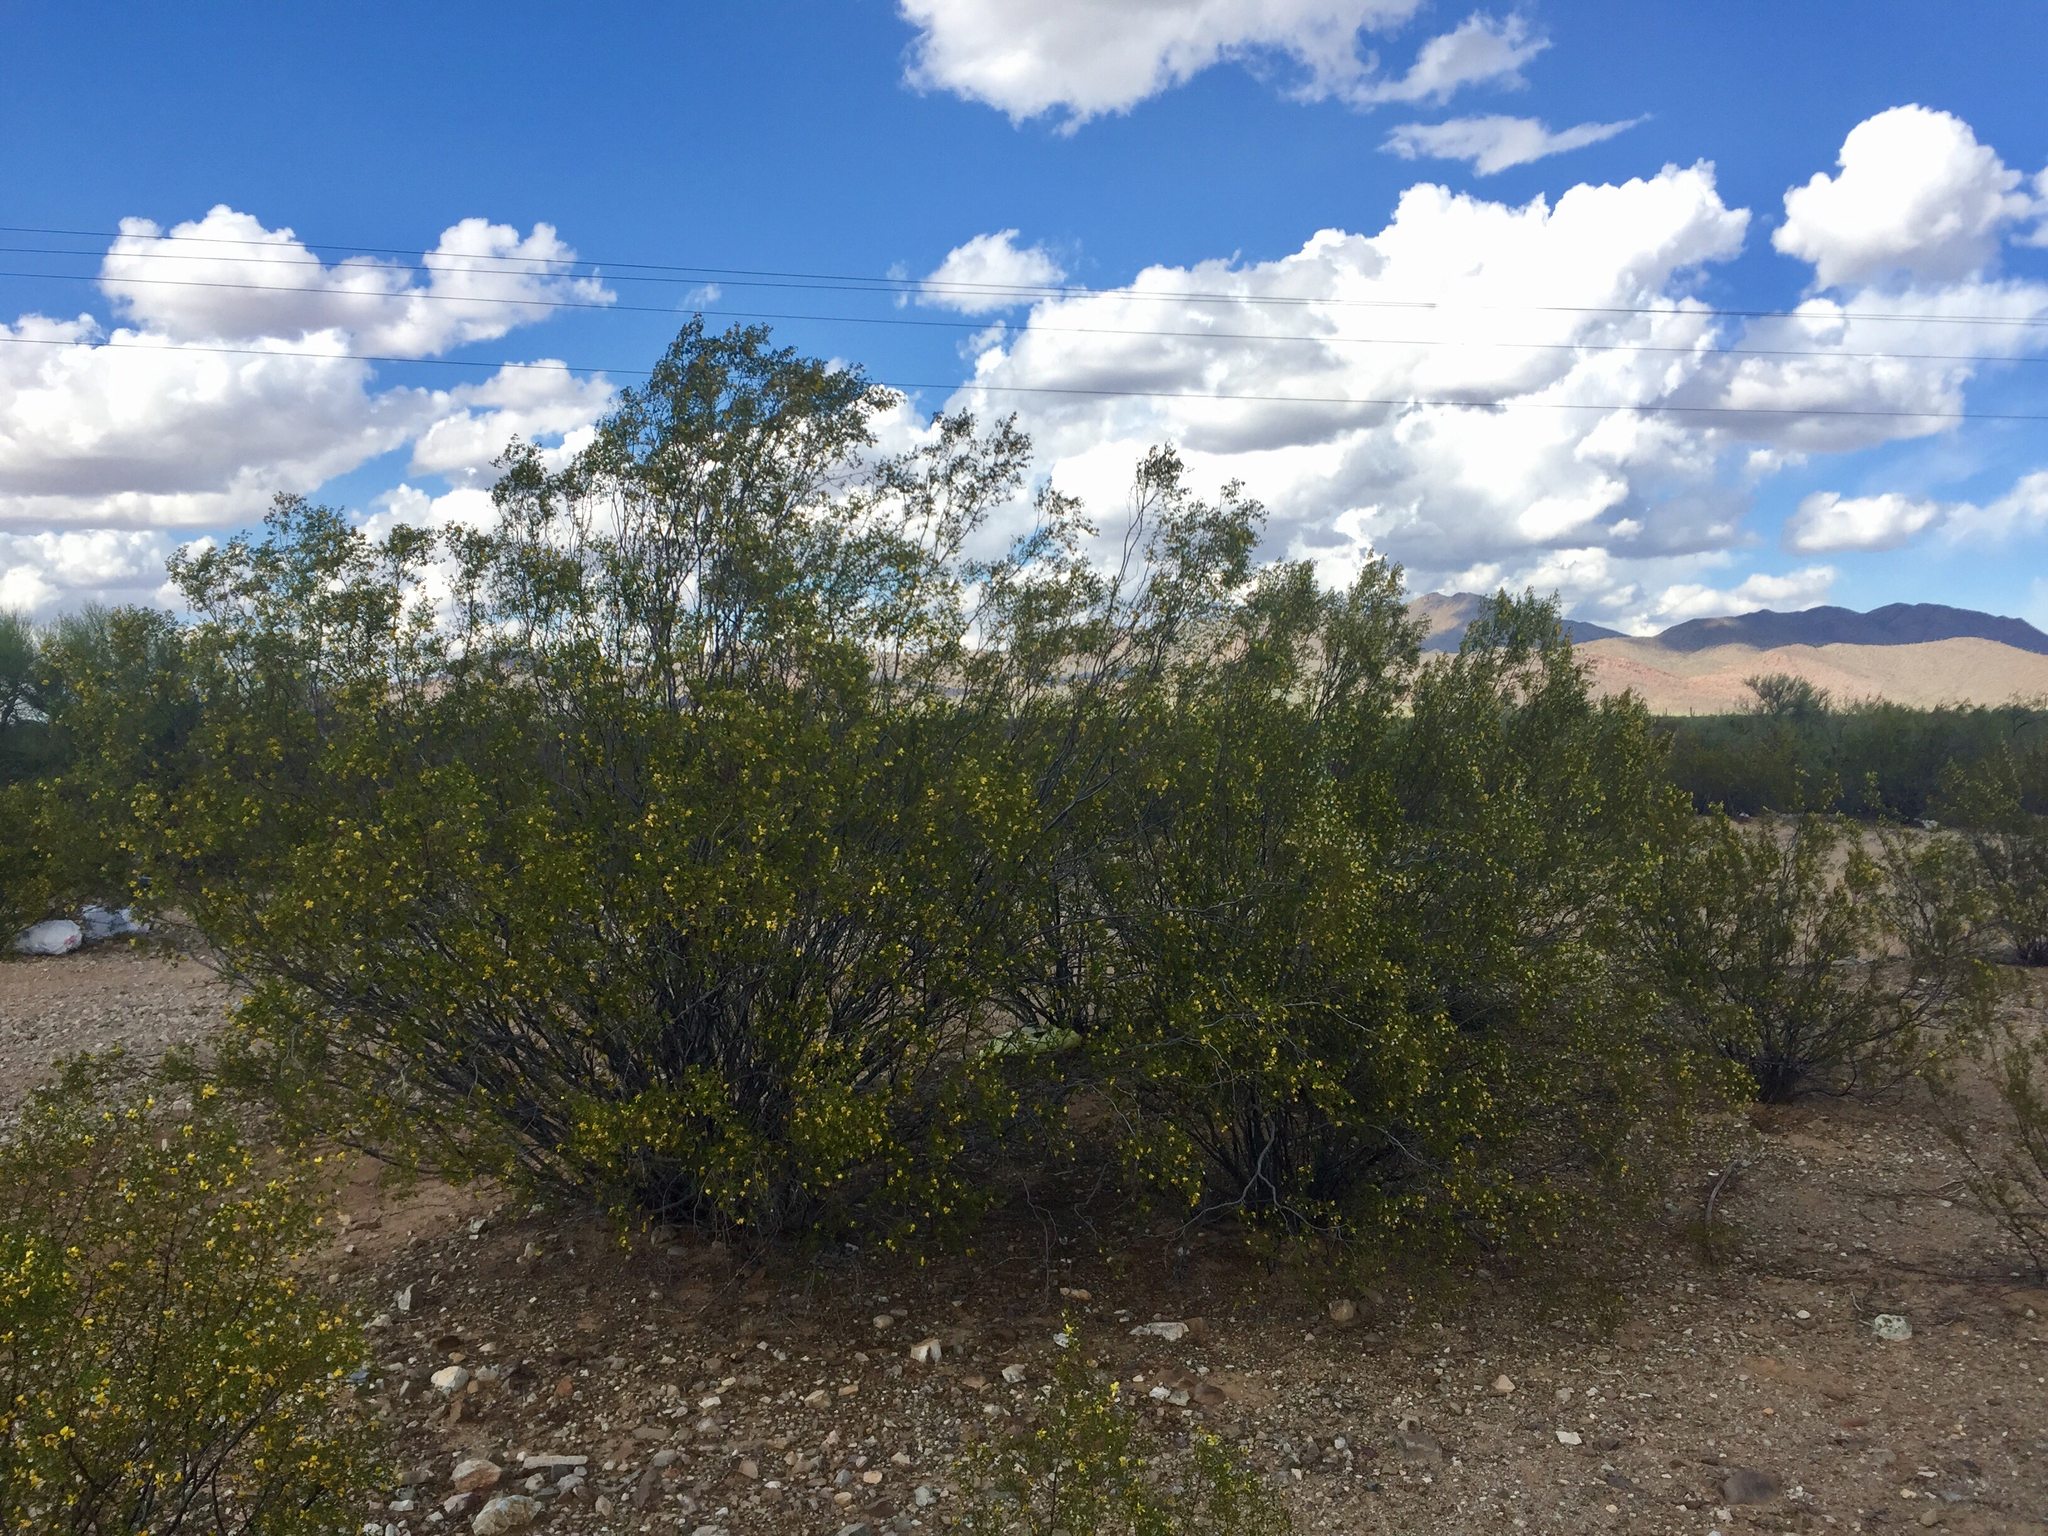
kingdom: Plantae
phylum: Tracheophyta
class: Magnoliopsida
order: Zygophyllales
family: Zygophyllaceae
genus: Larrea
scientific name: Larrea tridentata
